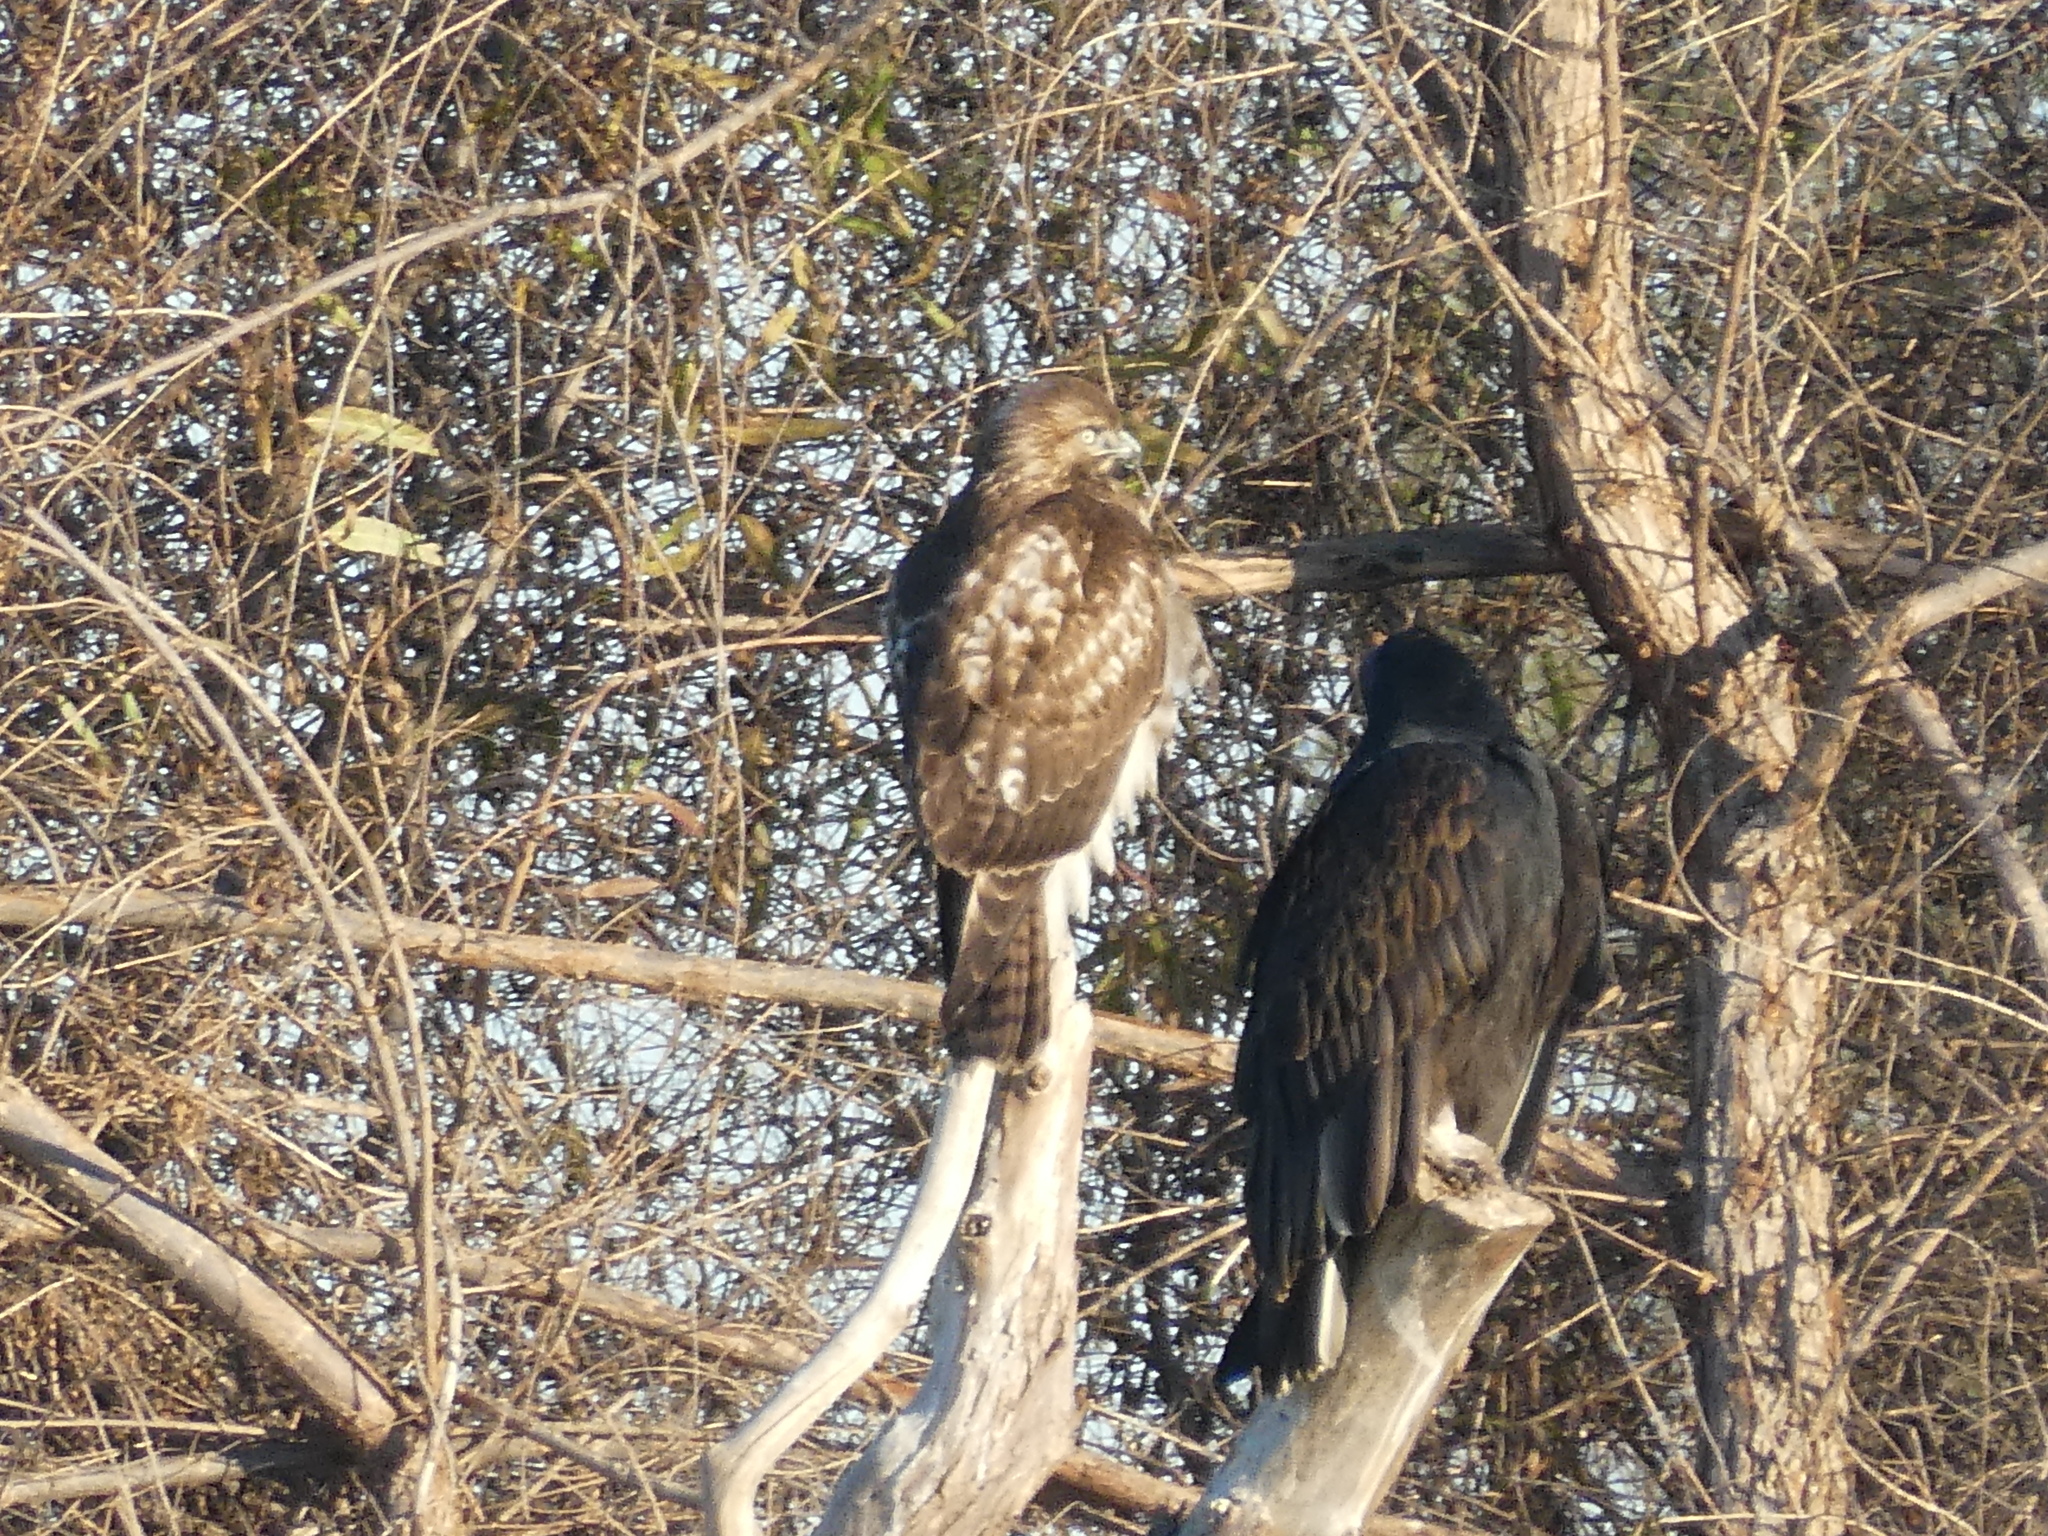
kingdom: Animalia
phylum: Chordata
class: Aves
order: Accipitriformes
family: Accipitridae
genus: Buteo
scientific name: Buteo jamaicensis
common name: Red-tailed hawk
